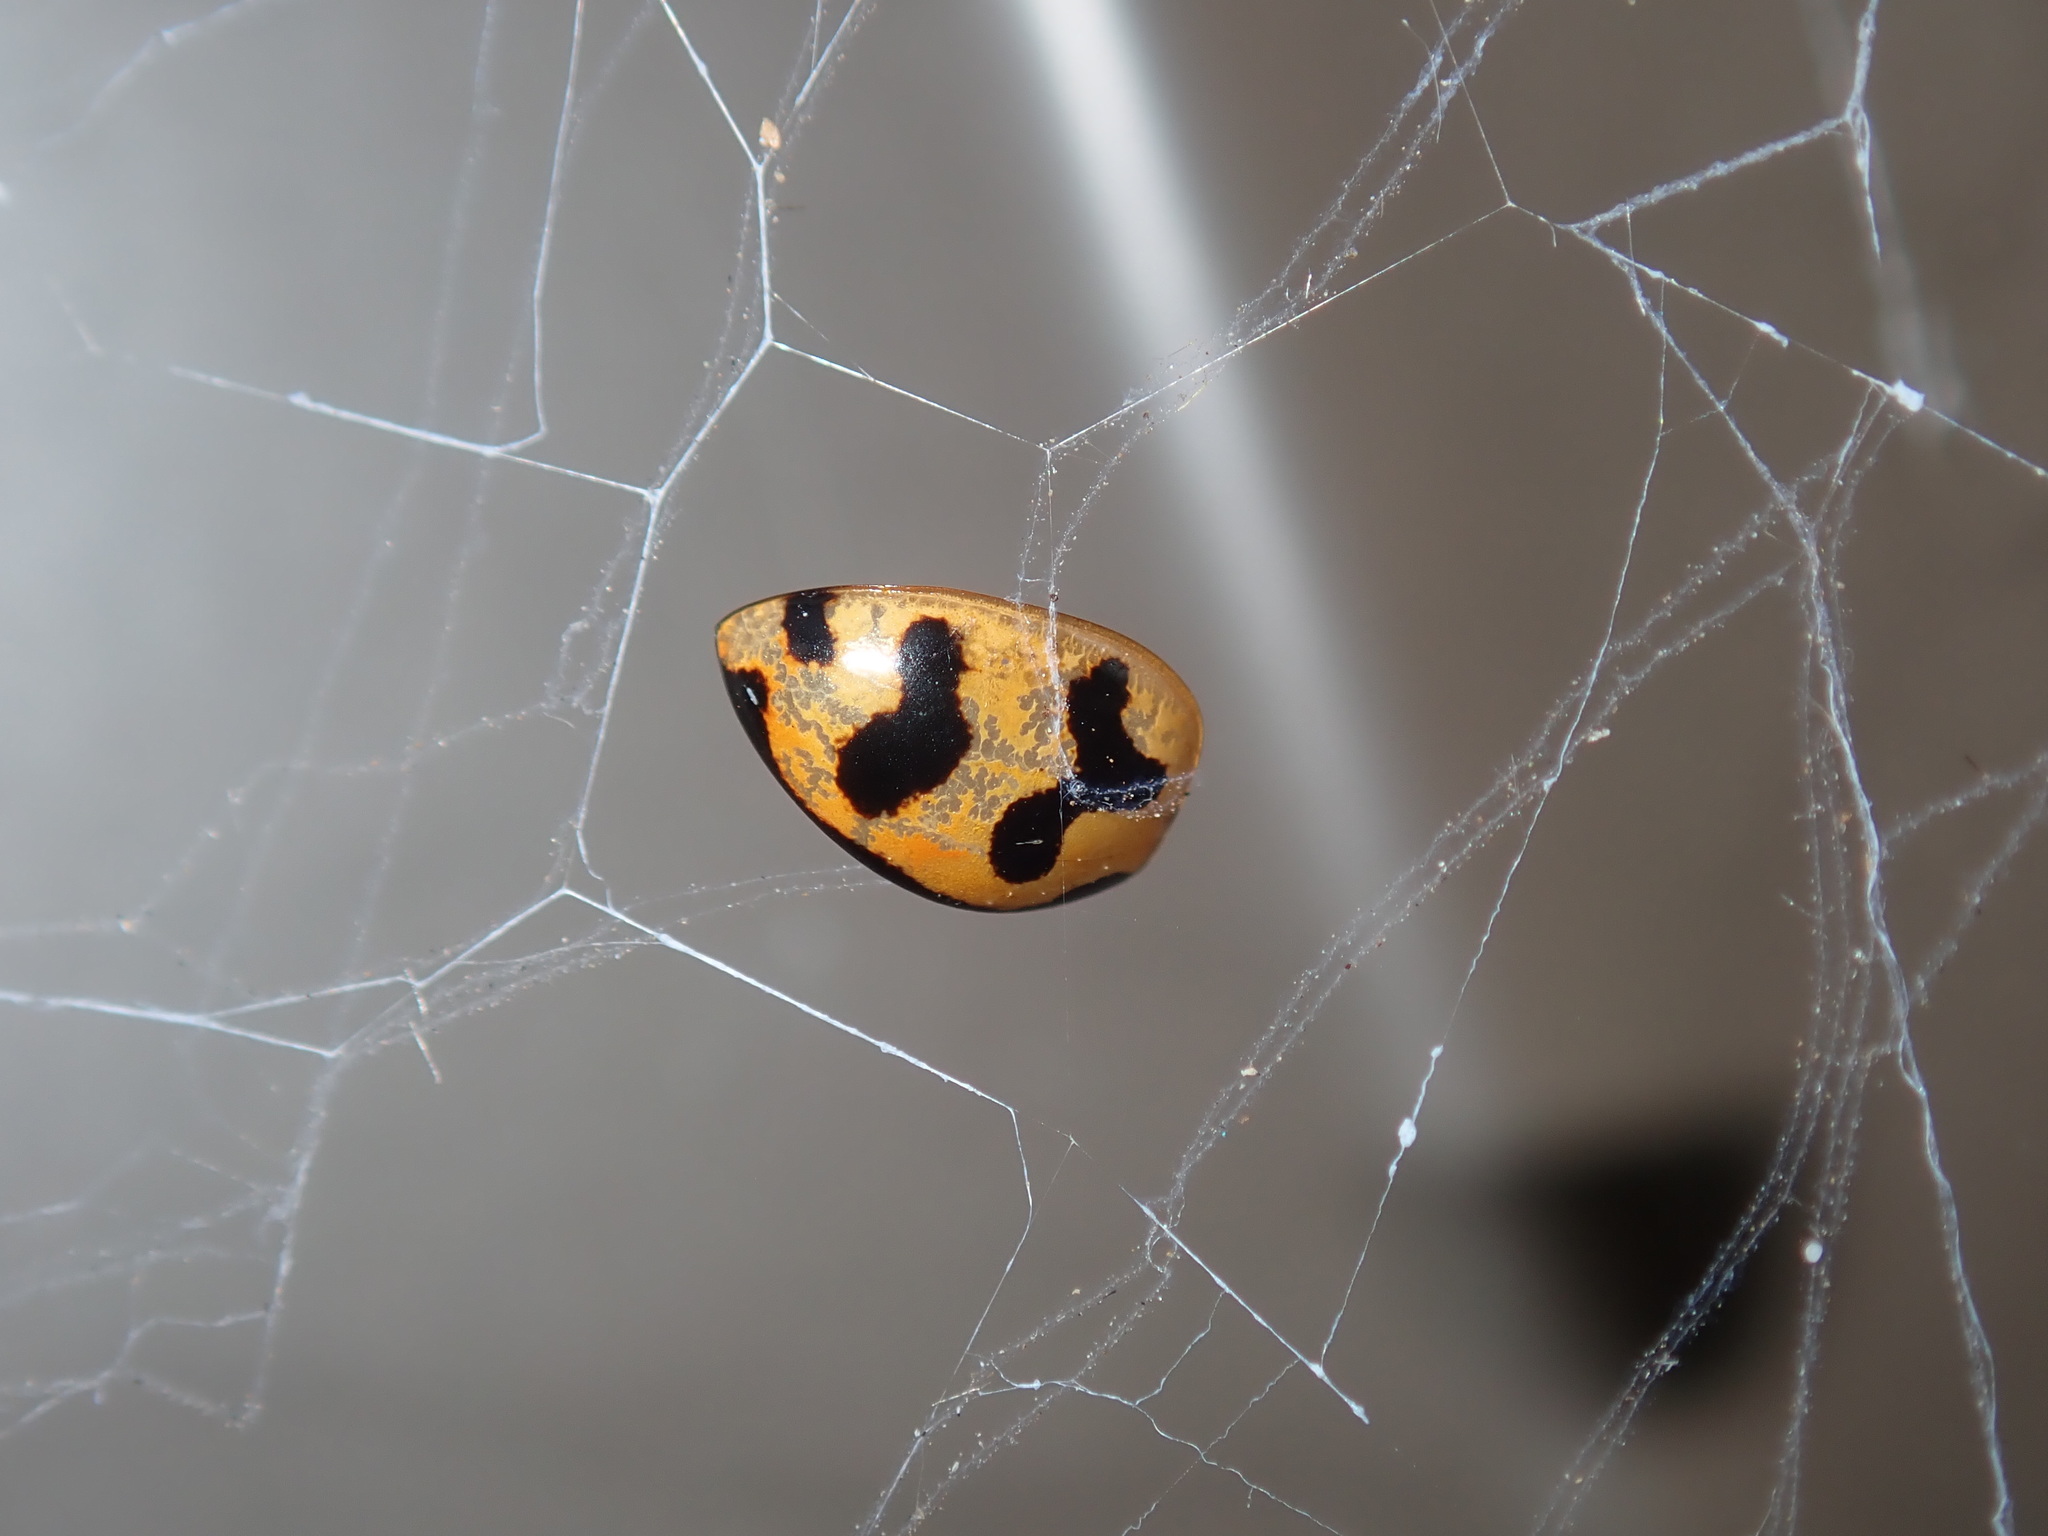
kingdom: Animalia
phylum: Arthropoda
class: Insecta
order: Coleoptera
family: Coccinellidae
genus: Coccinella
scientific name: Coccinella transversalis
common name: Transverse lady beetle
